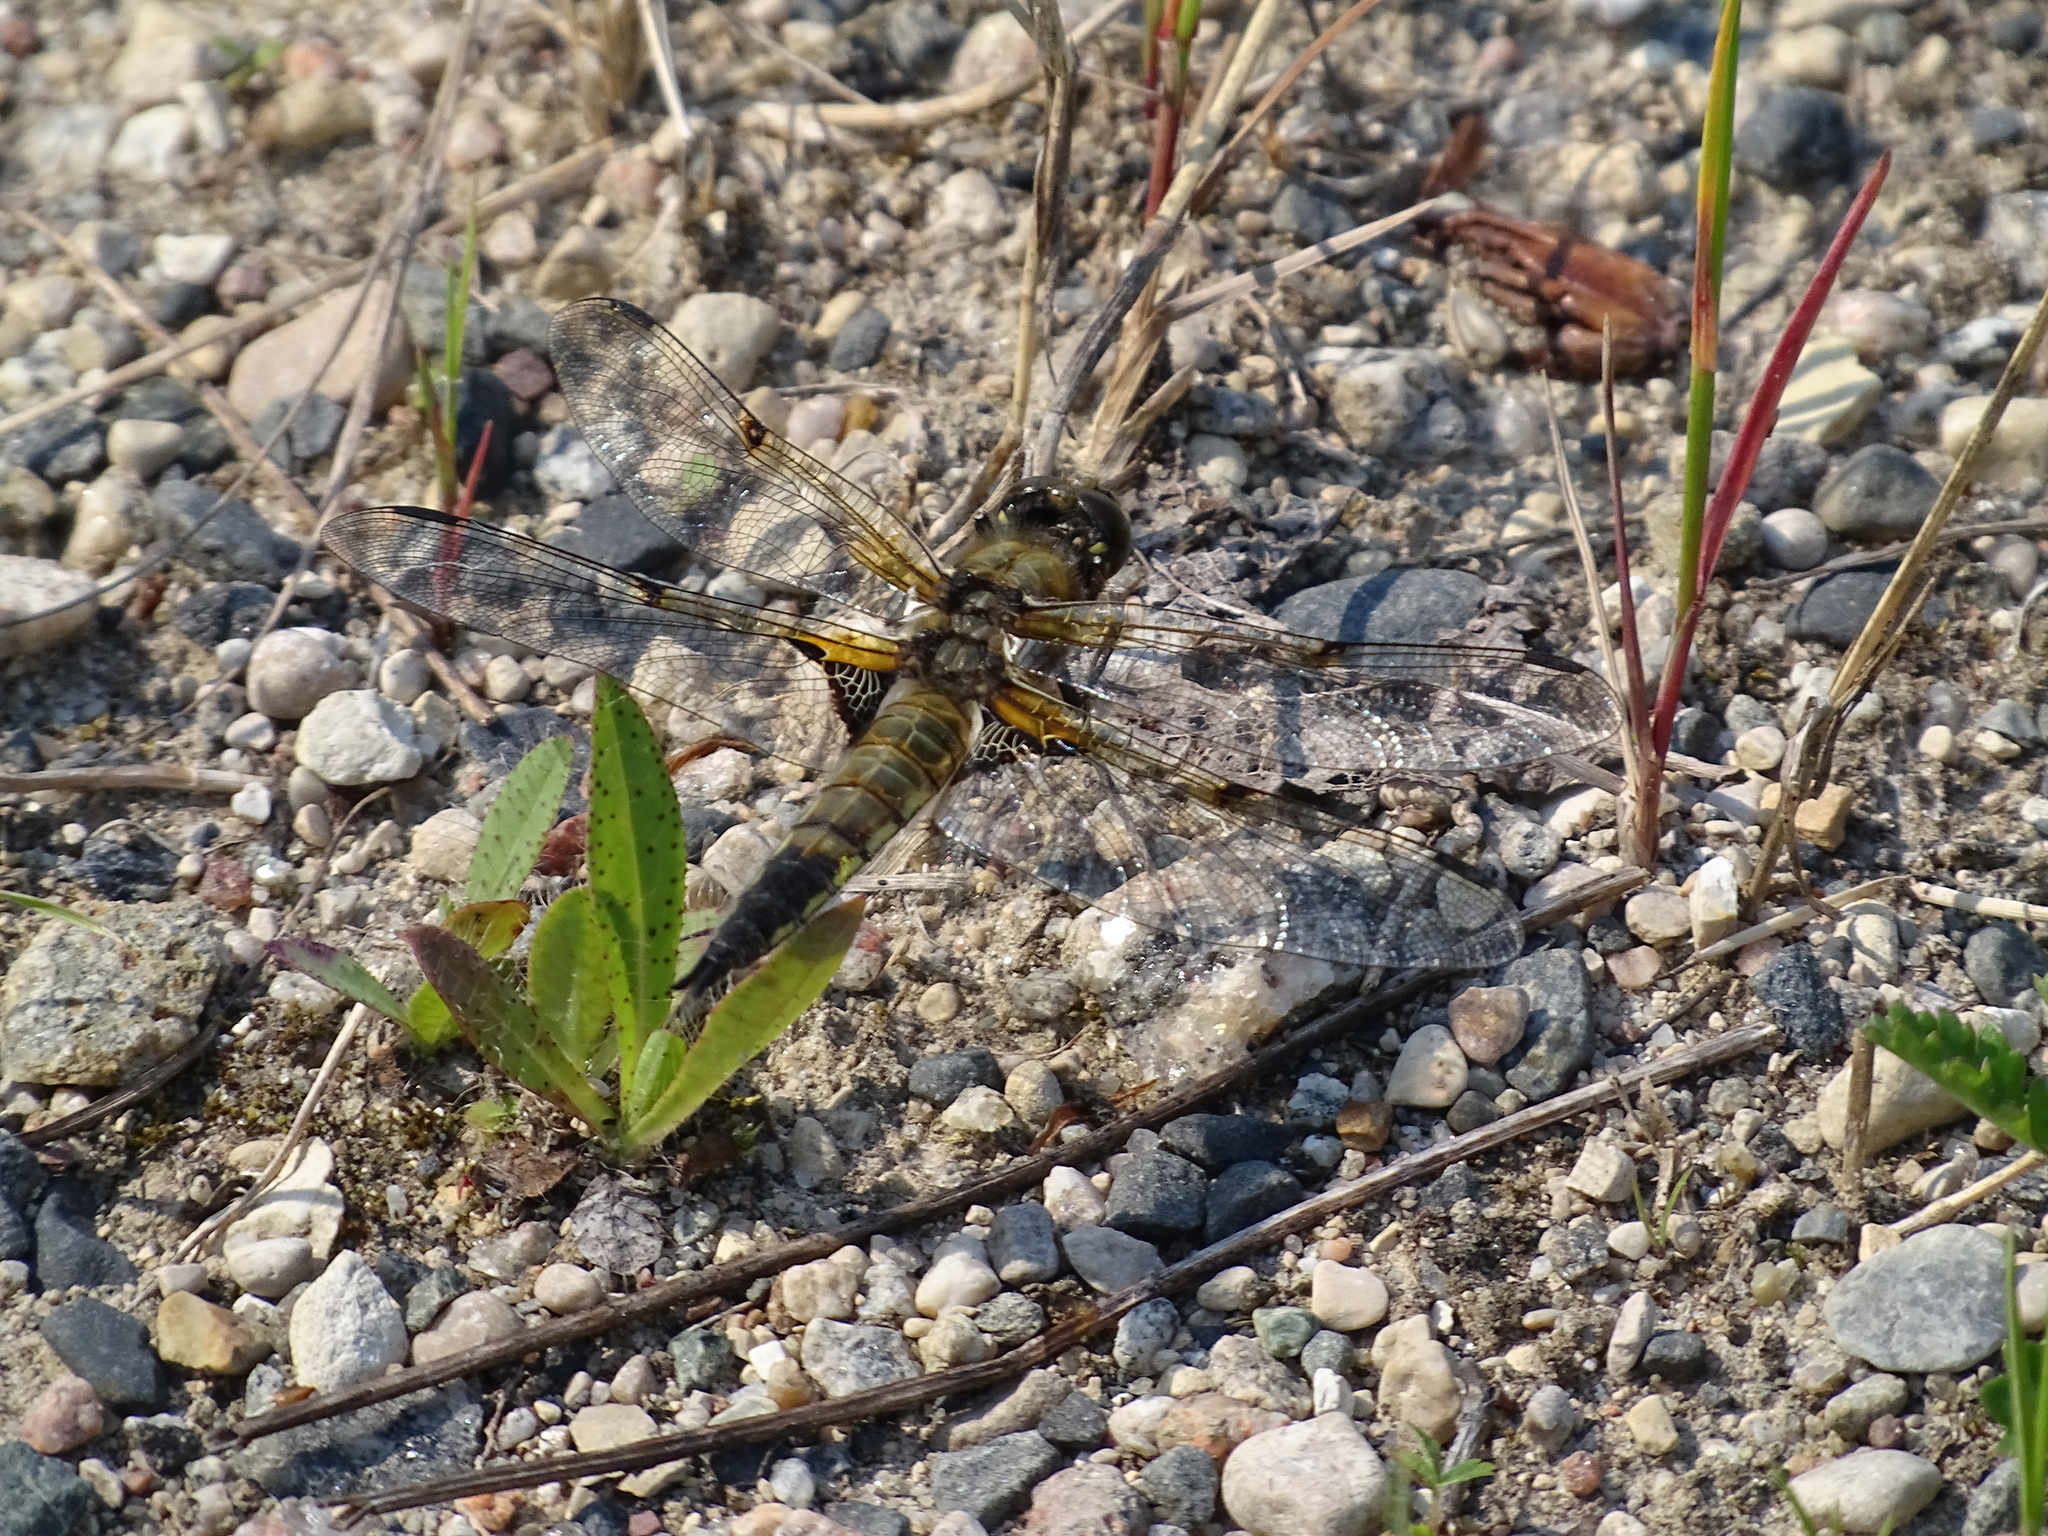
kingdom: Animalia
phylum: Arthropoda
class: Insecta
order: Odonata
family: Libellulidae
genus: Libellula
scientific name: Libellula quadrimaculata
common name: Four-spotted chaser
